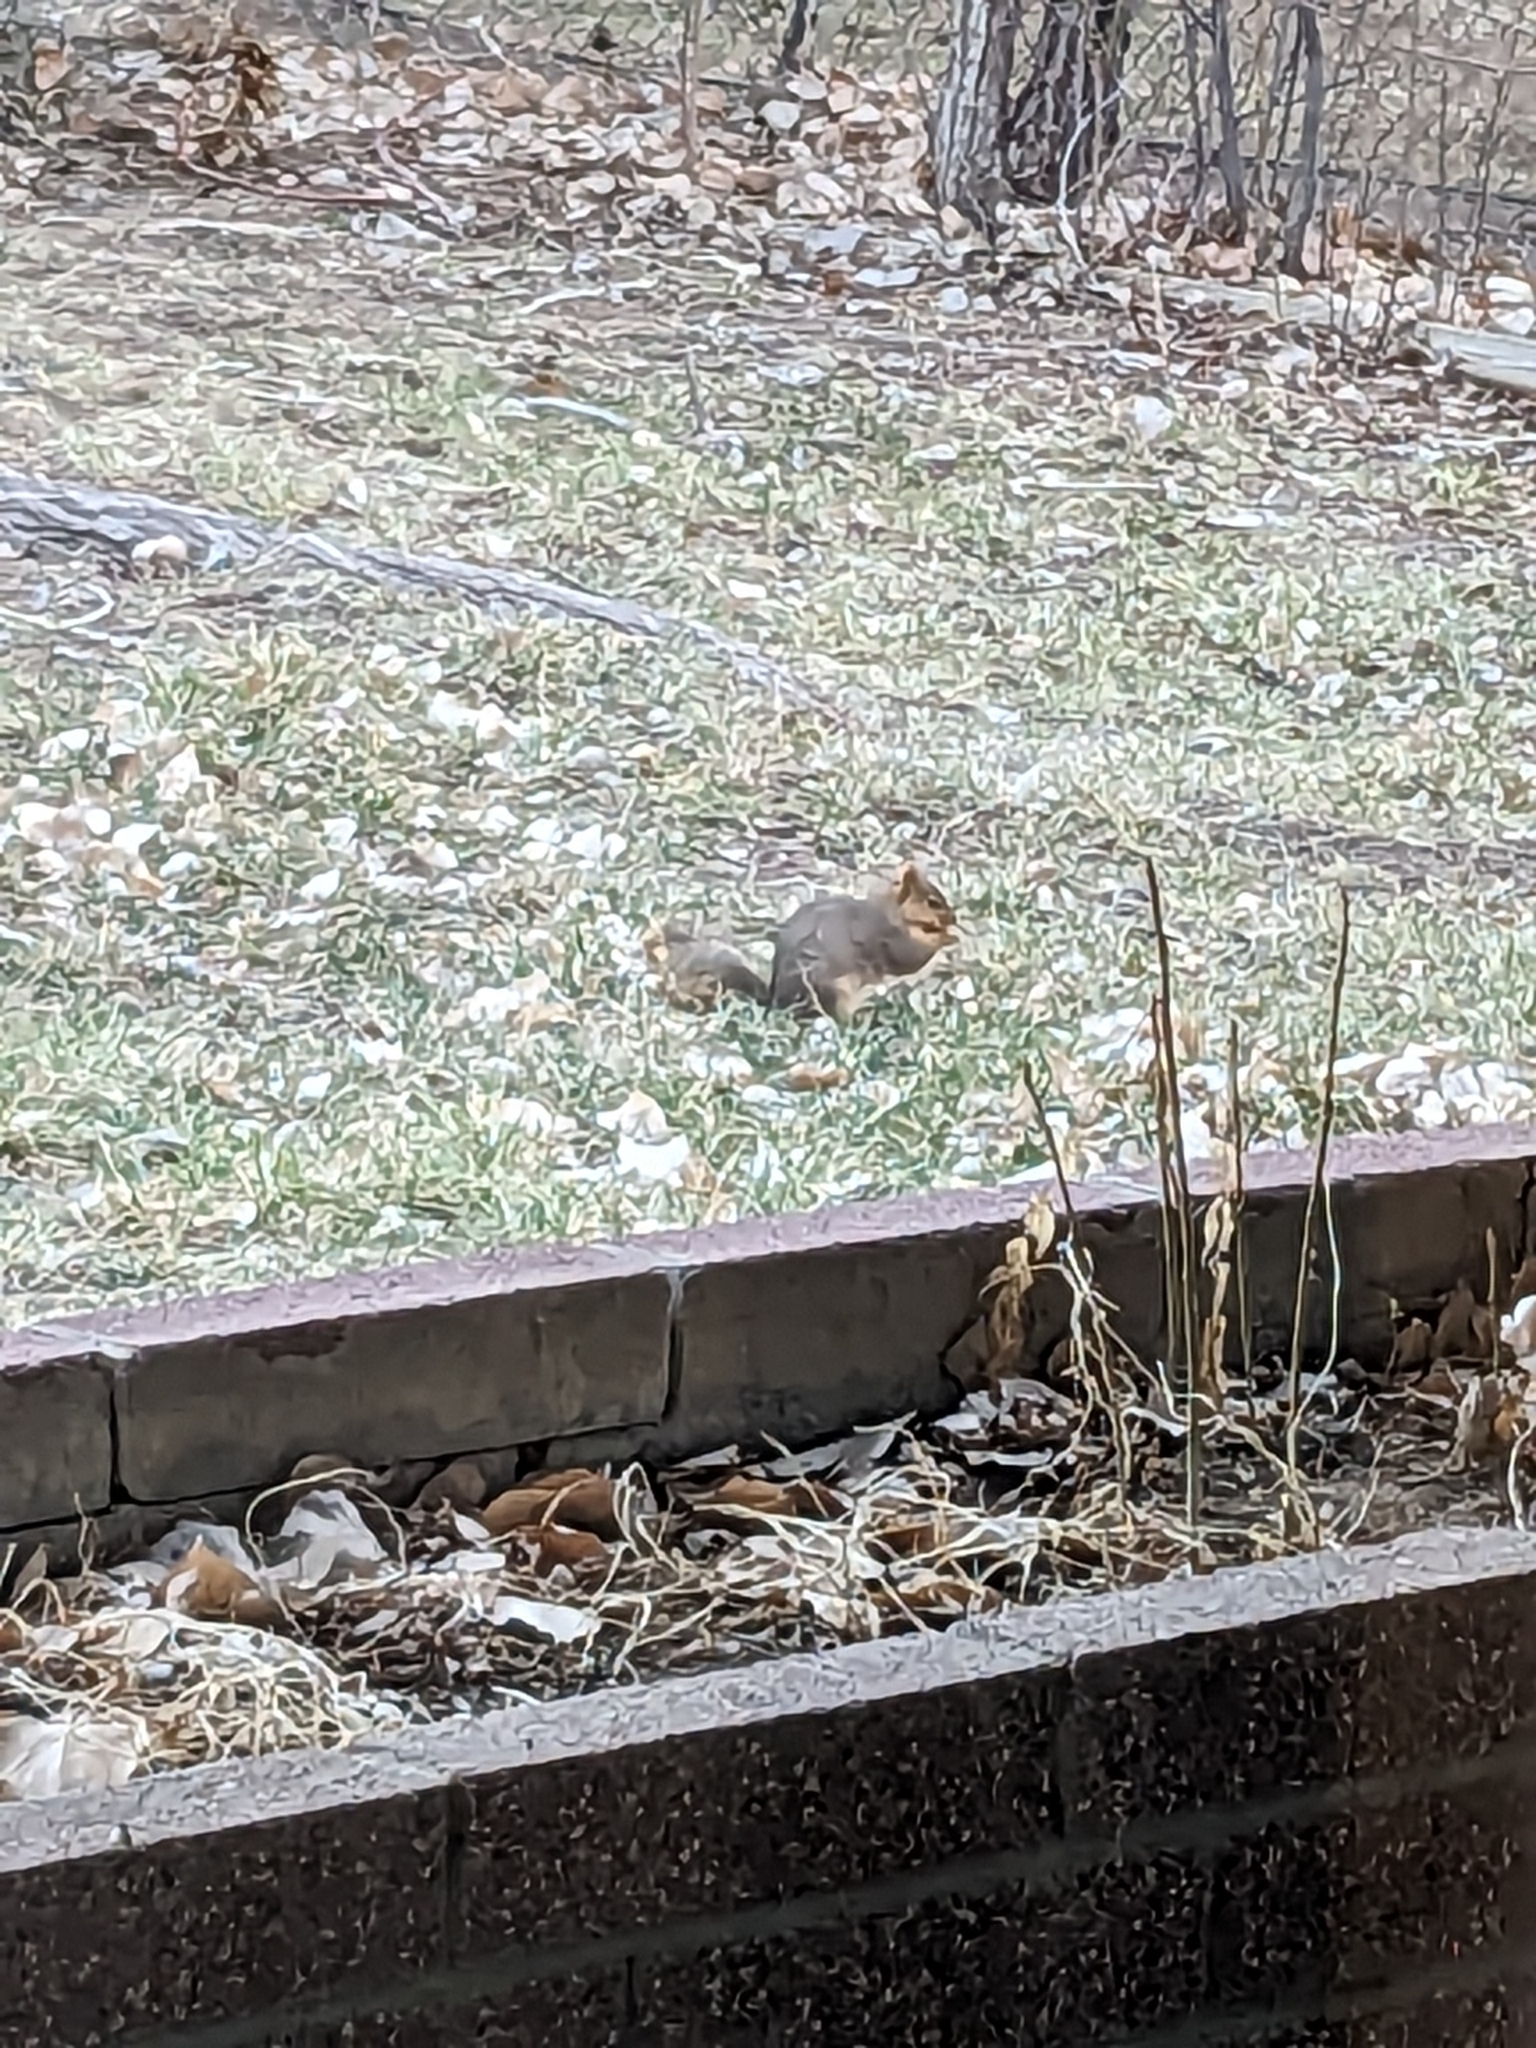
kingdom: Animalia
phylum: Chordata
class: Mammalia
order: Rodentia
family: Sciuridae
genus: Sciurus
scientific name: Sciurus niger
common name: Fox squirrel
